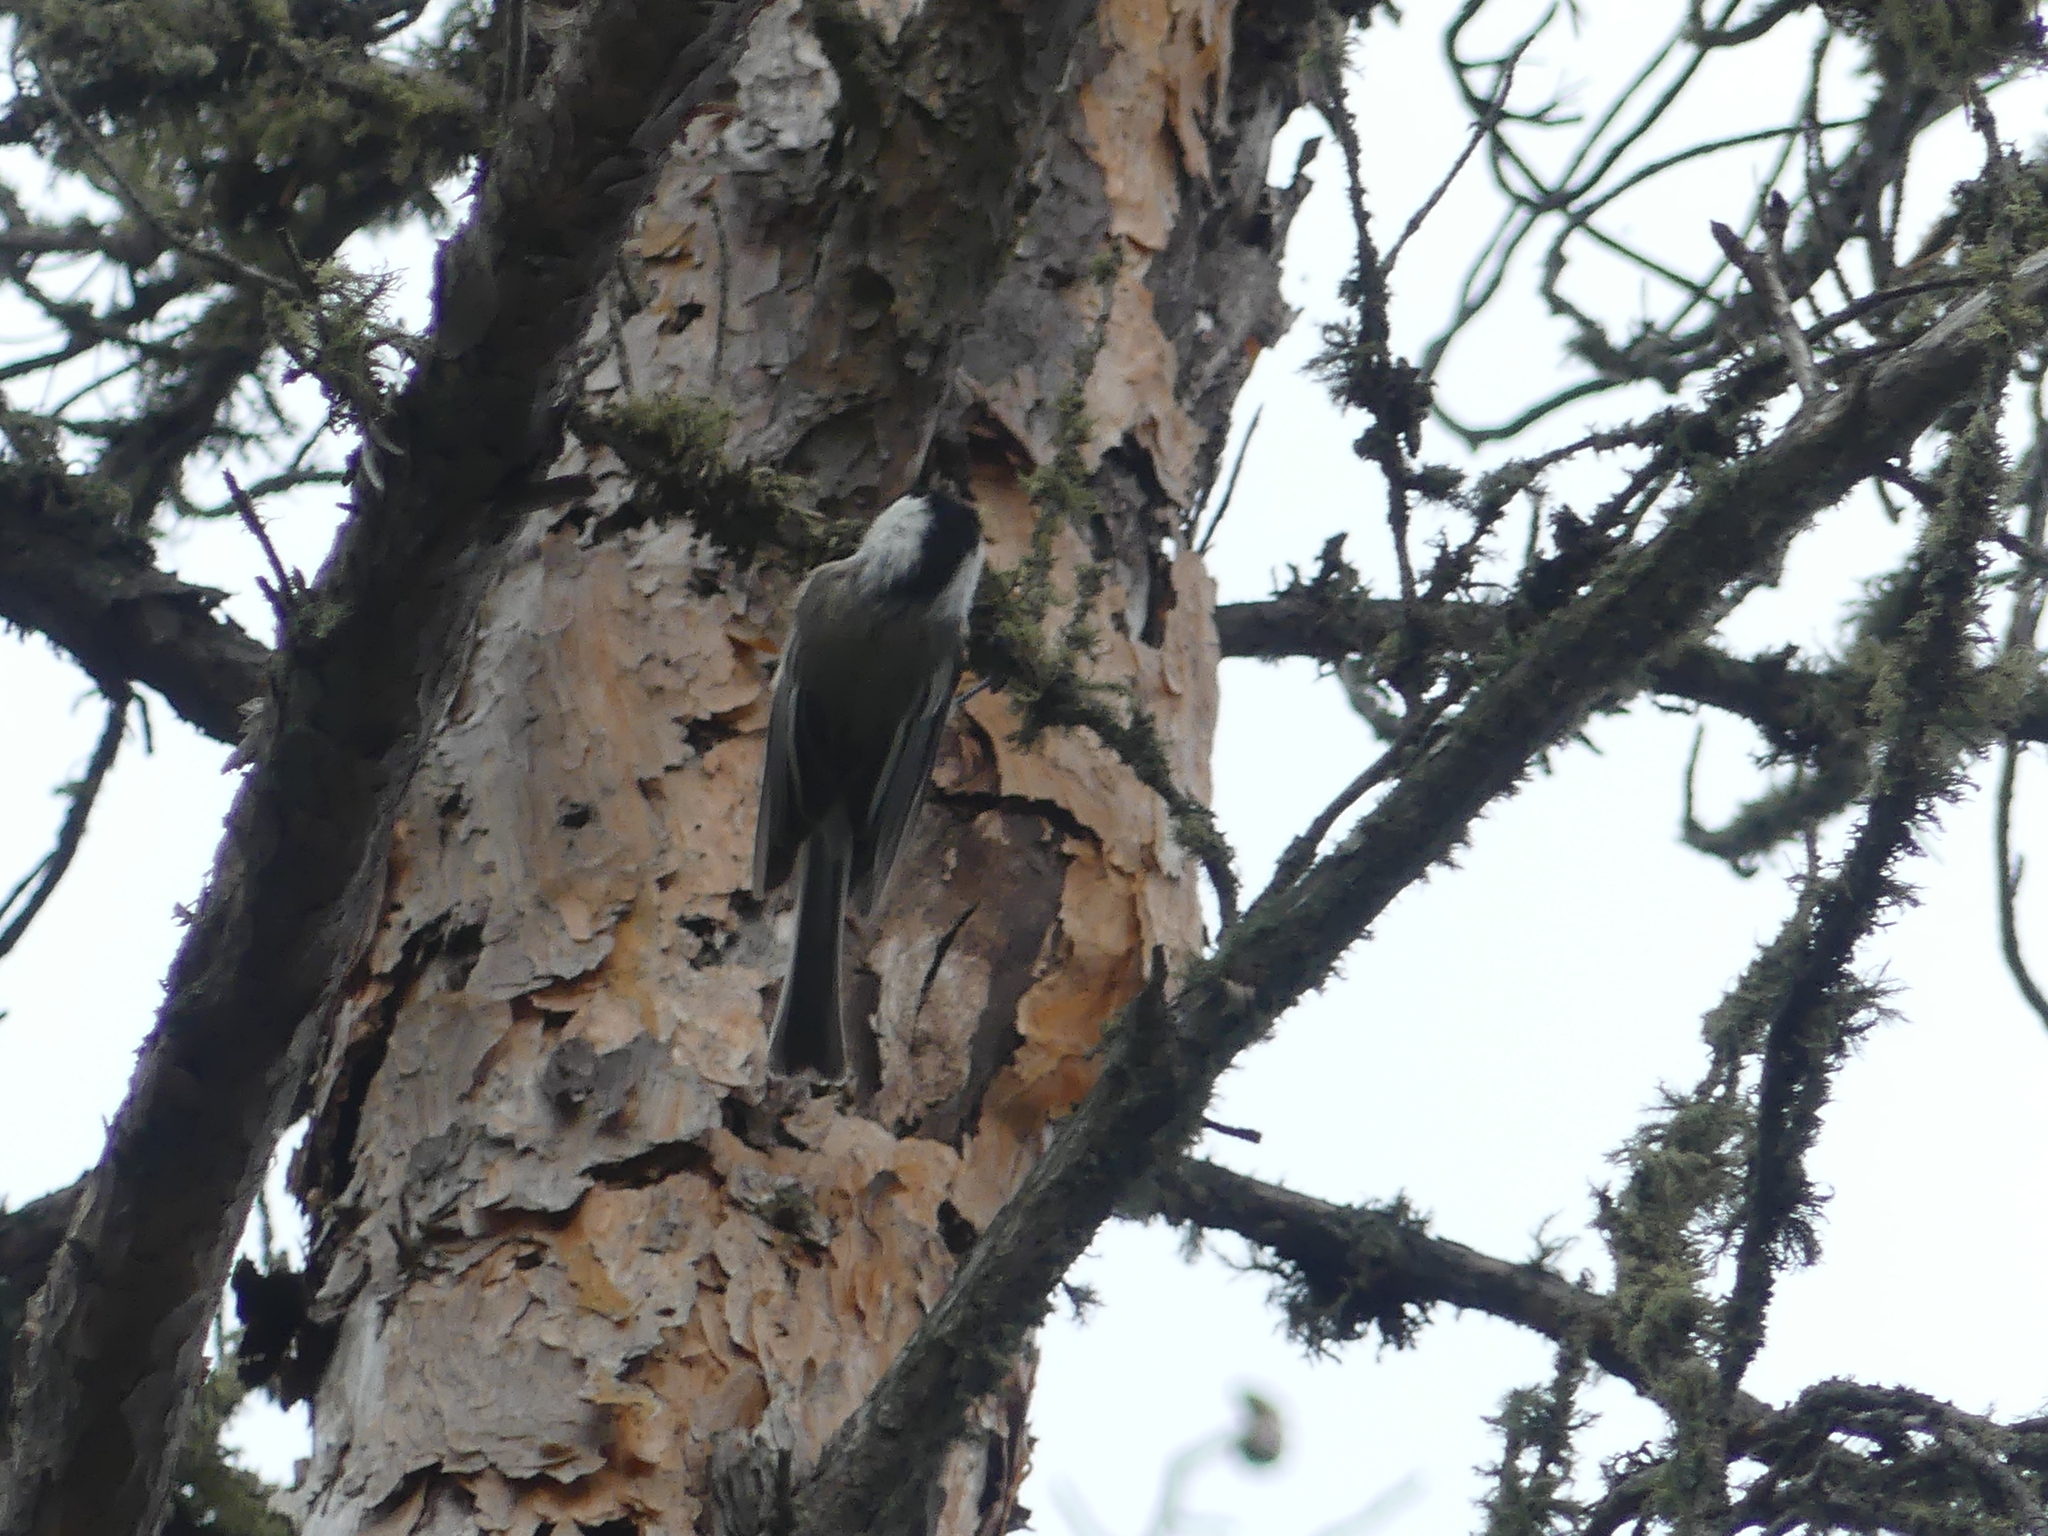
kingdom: Animalia
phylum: Chordata
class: Aves
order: Passeriformes
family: Paridae
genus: Poecile
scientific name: Poecile atricapillus
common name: Black-capped chickadee
